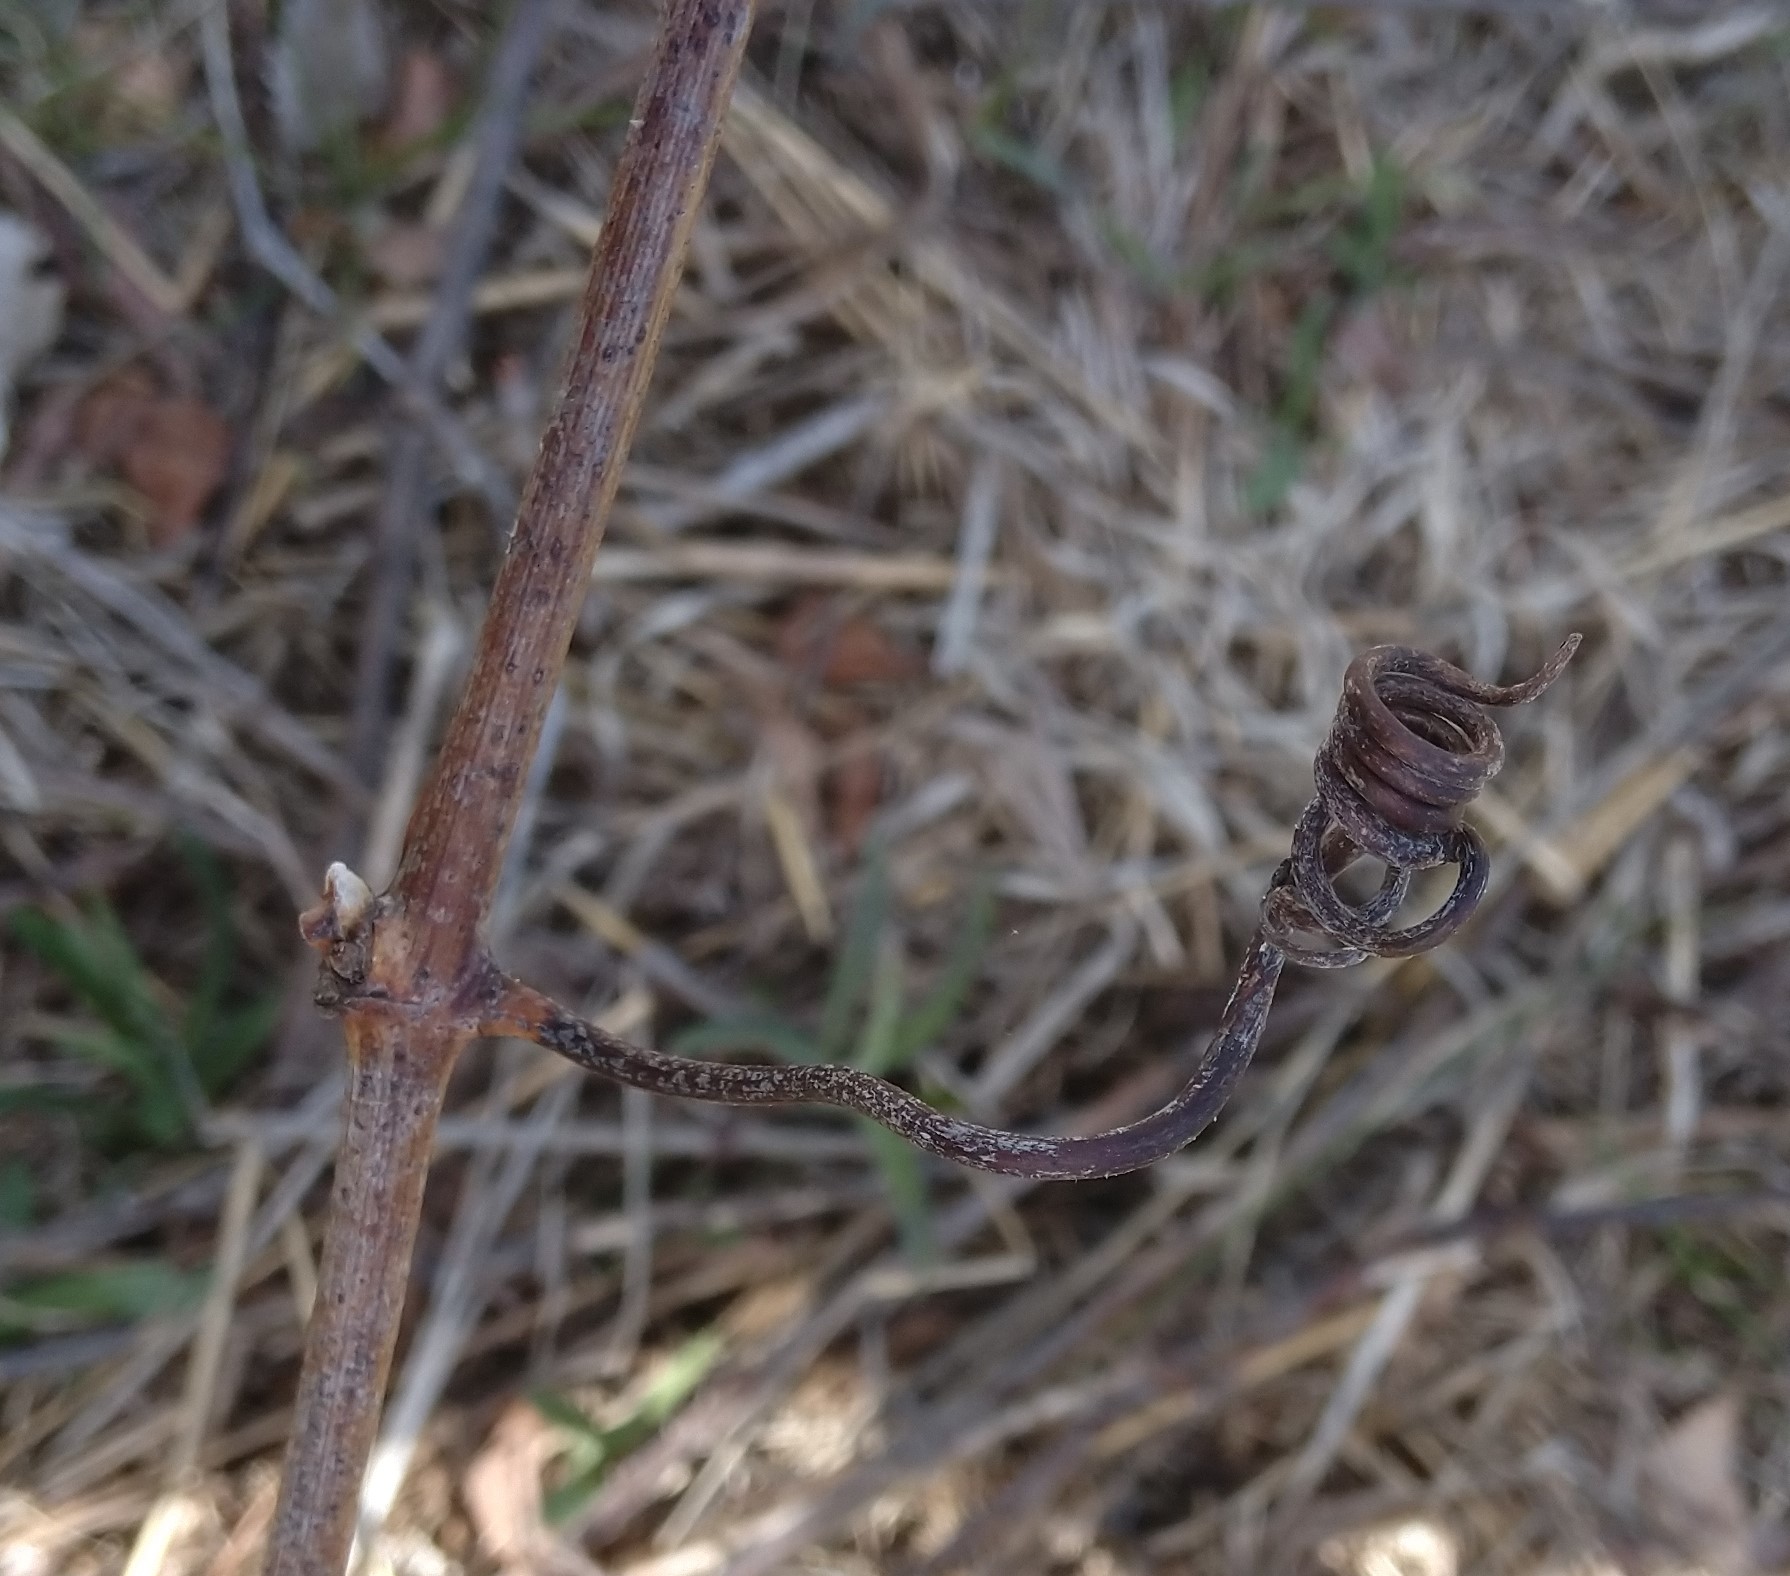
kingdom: Plantae
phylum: Tracheophyta
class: Magnoliopsida
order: Vitales
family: Vitaceae
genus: Vitis
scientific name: Vitis riparia
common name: Frost grape
